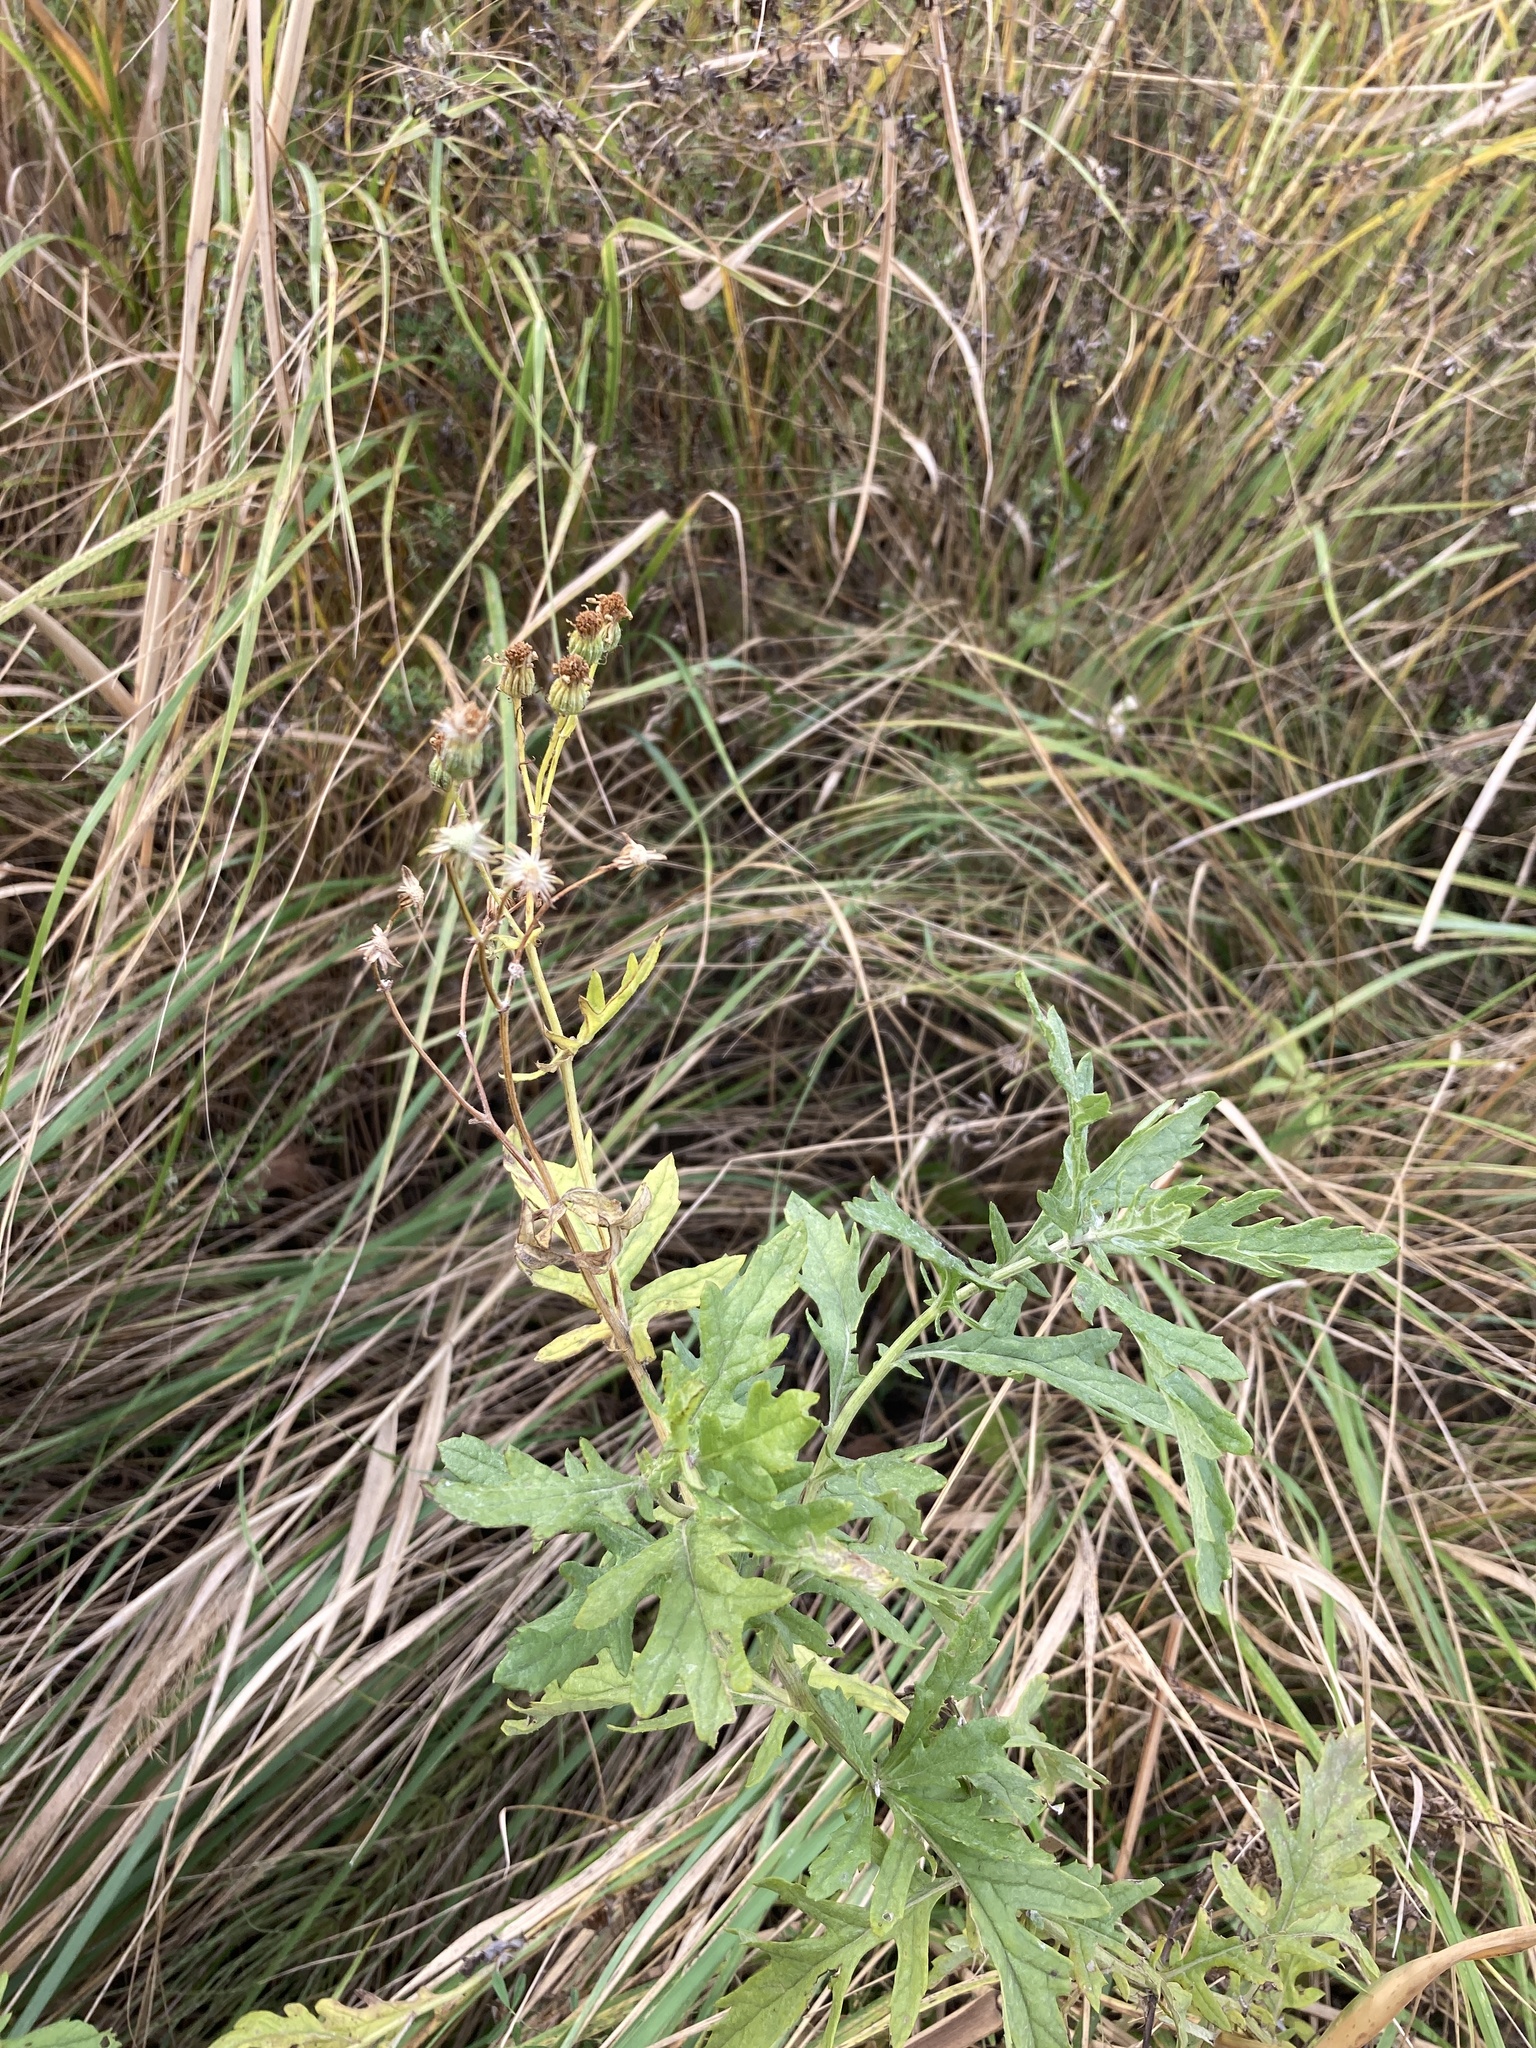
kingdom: Plantae
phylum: Tracheophyta
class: Magnoliopsida
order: Asterales
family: Asteraceae
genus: Jacobaea
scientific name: Jacobaea erucifolia
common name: Hoary ragwort
